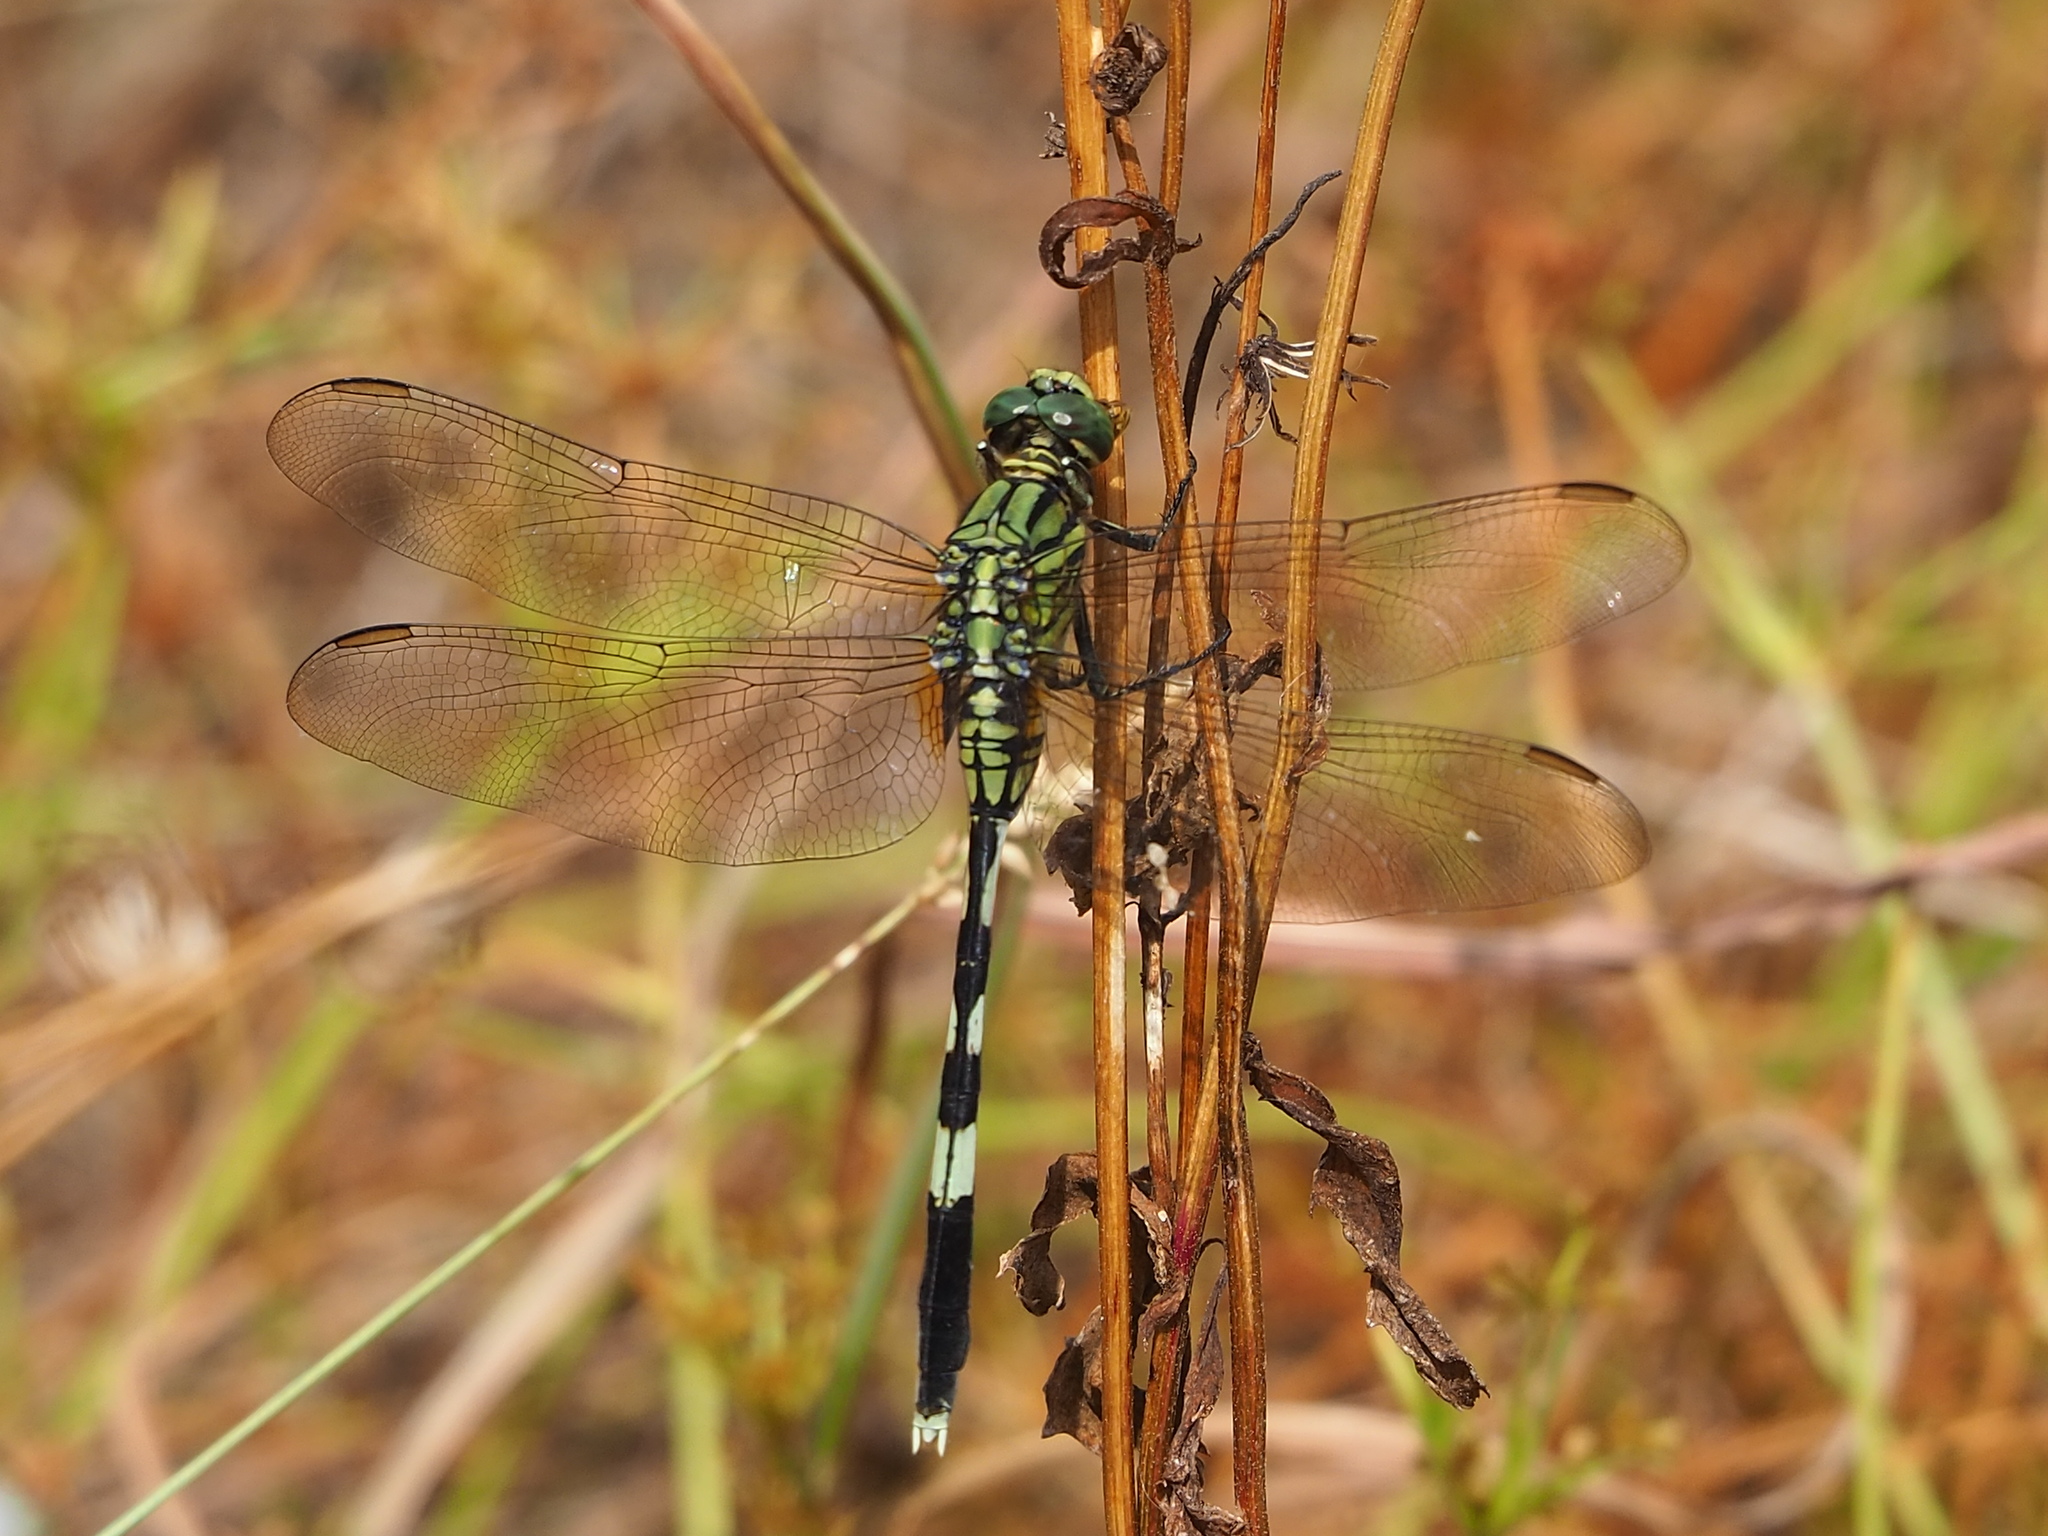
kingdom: Animalia
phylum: Arthropoda
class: Insecta
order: Odonata
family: Libellulidae
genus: Orthetrum
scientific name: Orthetrum sabina
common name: Slender skimmer
